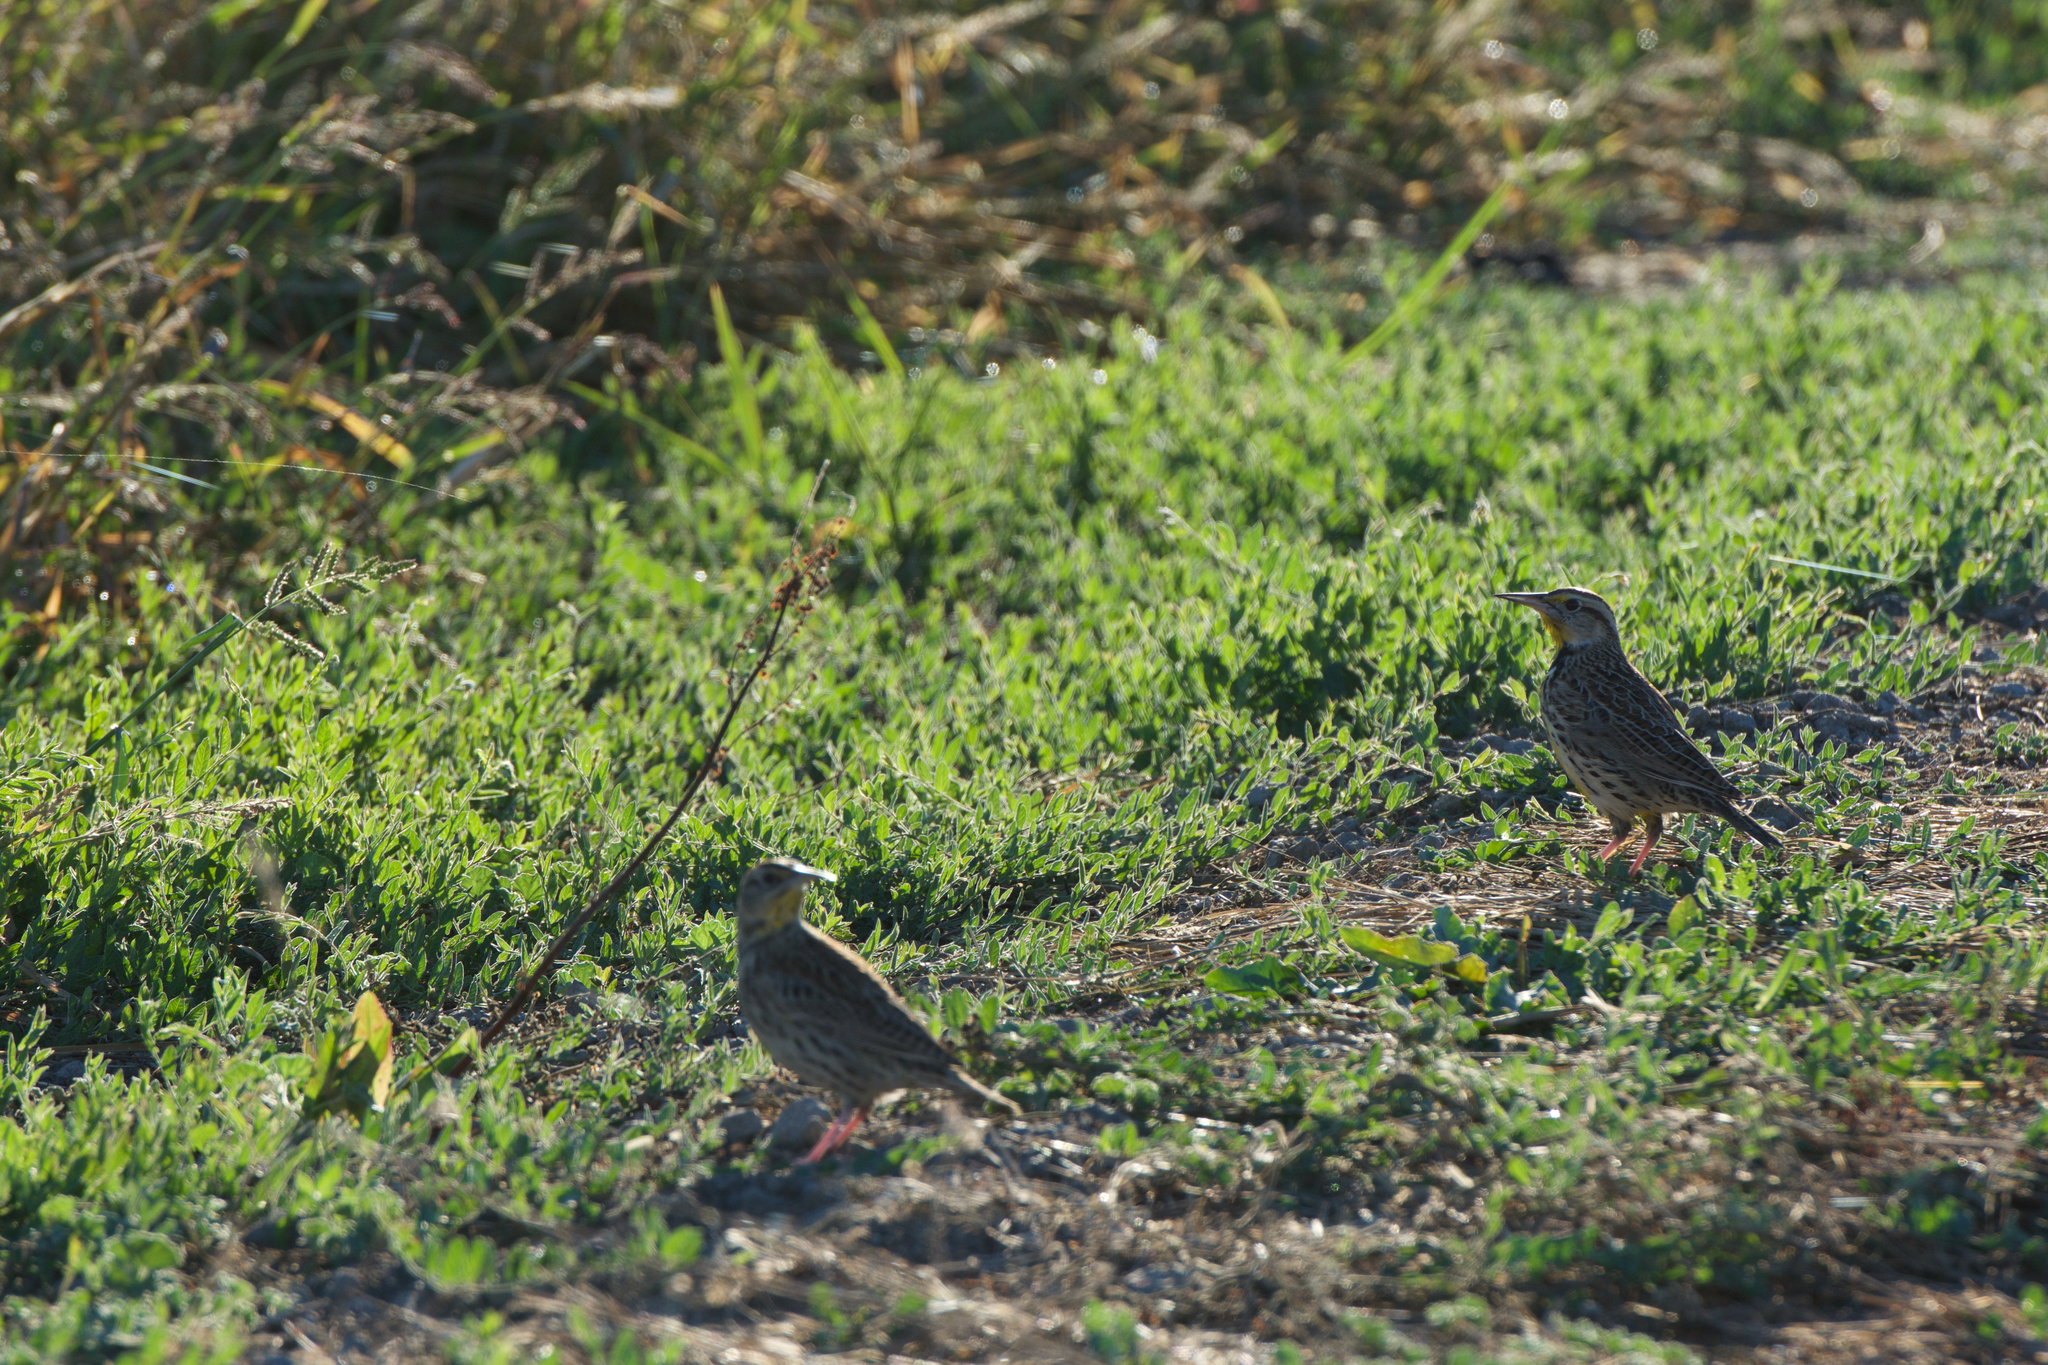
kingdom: Animalia
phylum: Chordata
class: Aves
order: Passeriformes
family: Icteridae
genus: Sturnella
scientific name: Sturnella neglecta
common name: Western meadowlark
